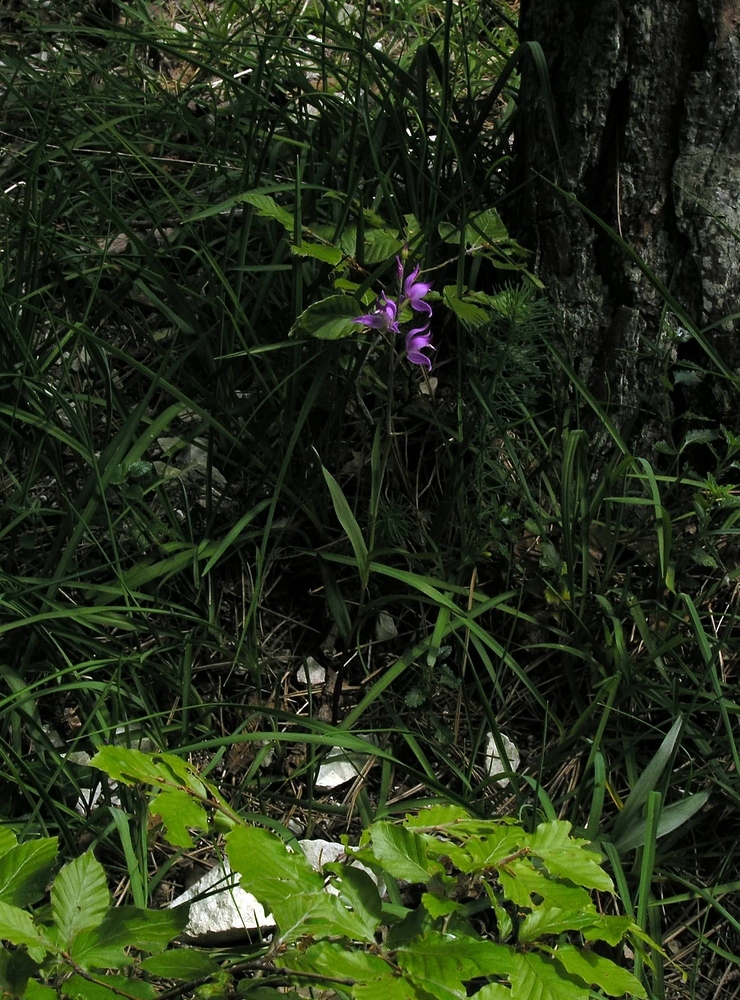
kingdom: Plantae
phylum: Tracheophyta
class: Liliopsida
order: Asparagales
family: Orchidaceae
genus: Cephalanthera
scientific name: Cephalanthera rubra
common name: Red helleborine
